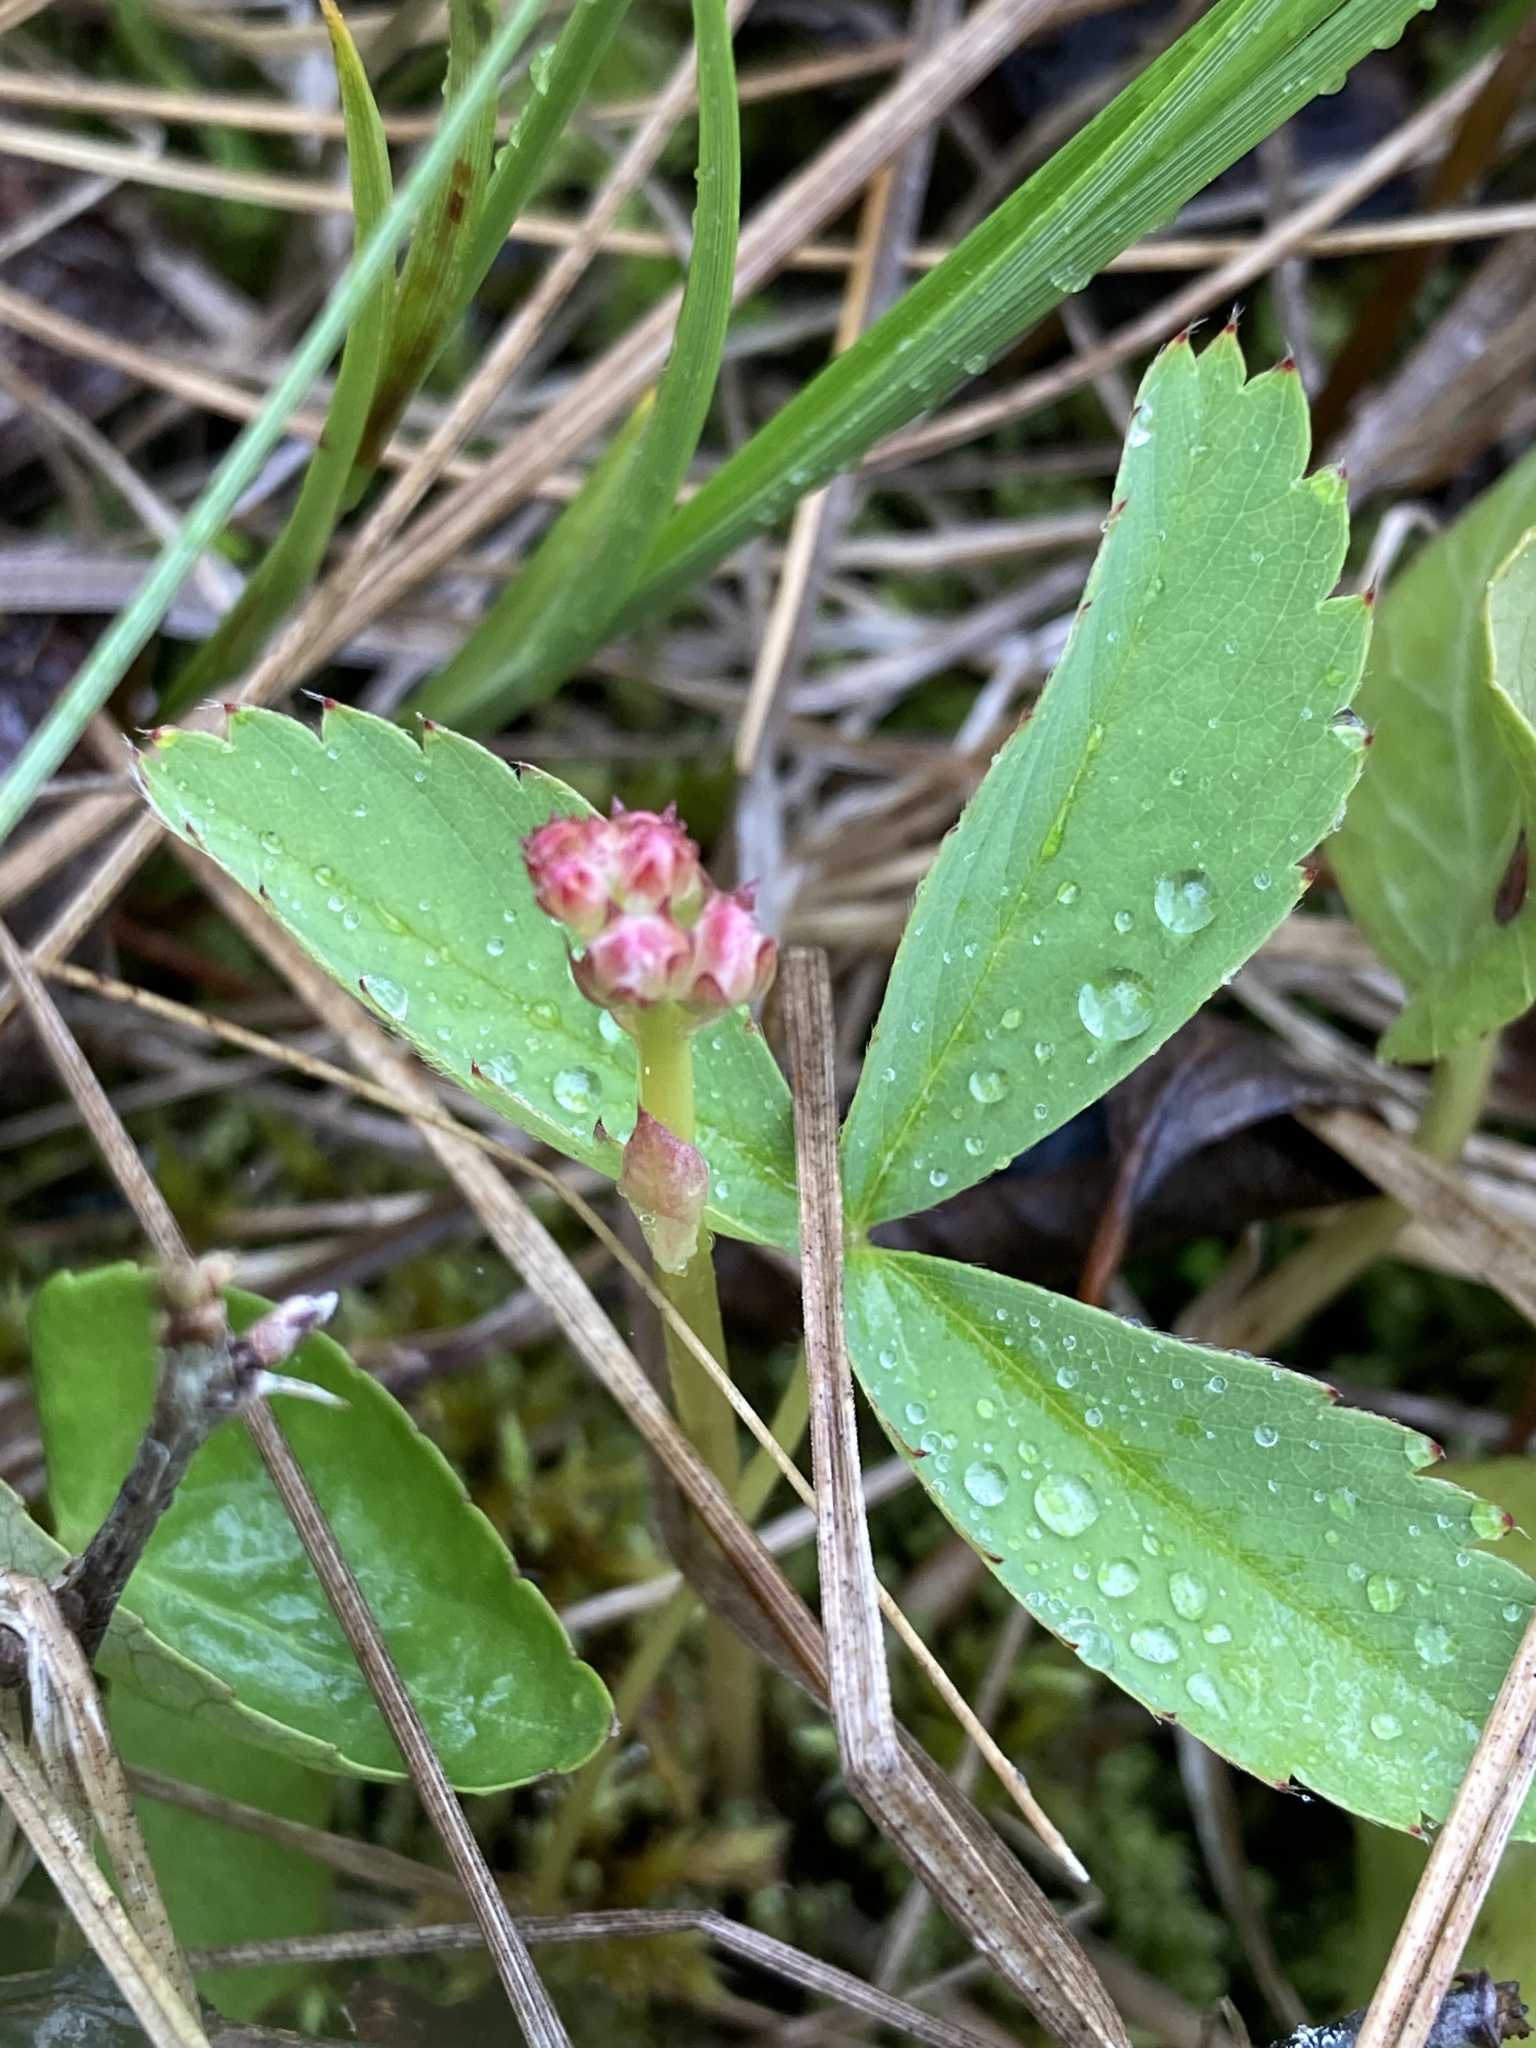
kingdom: Plantae
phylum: Tracheophyta
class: Magnoliopsida
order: Rosales
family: Rosaceae
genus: Fragaria
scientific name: Fragaria virginiana
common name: Thickleaved wild strawberry
